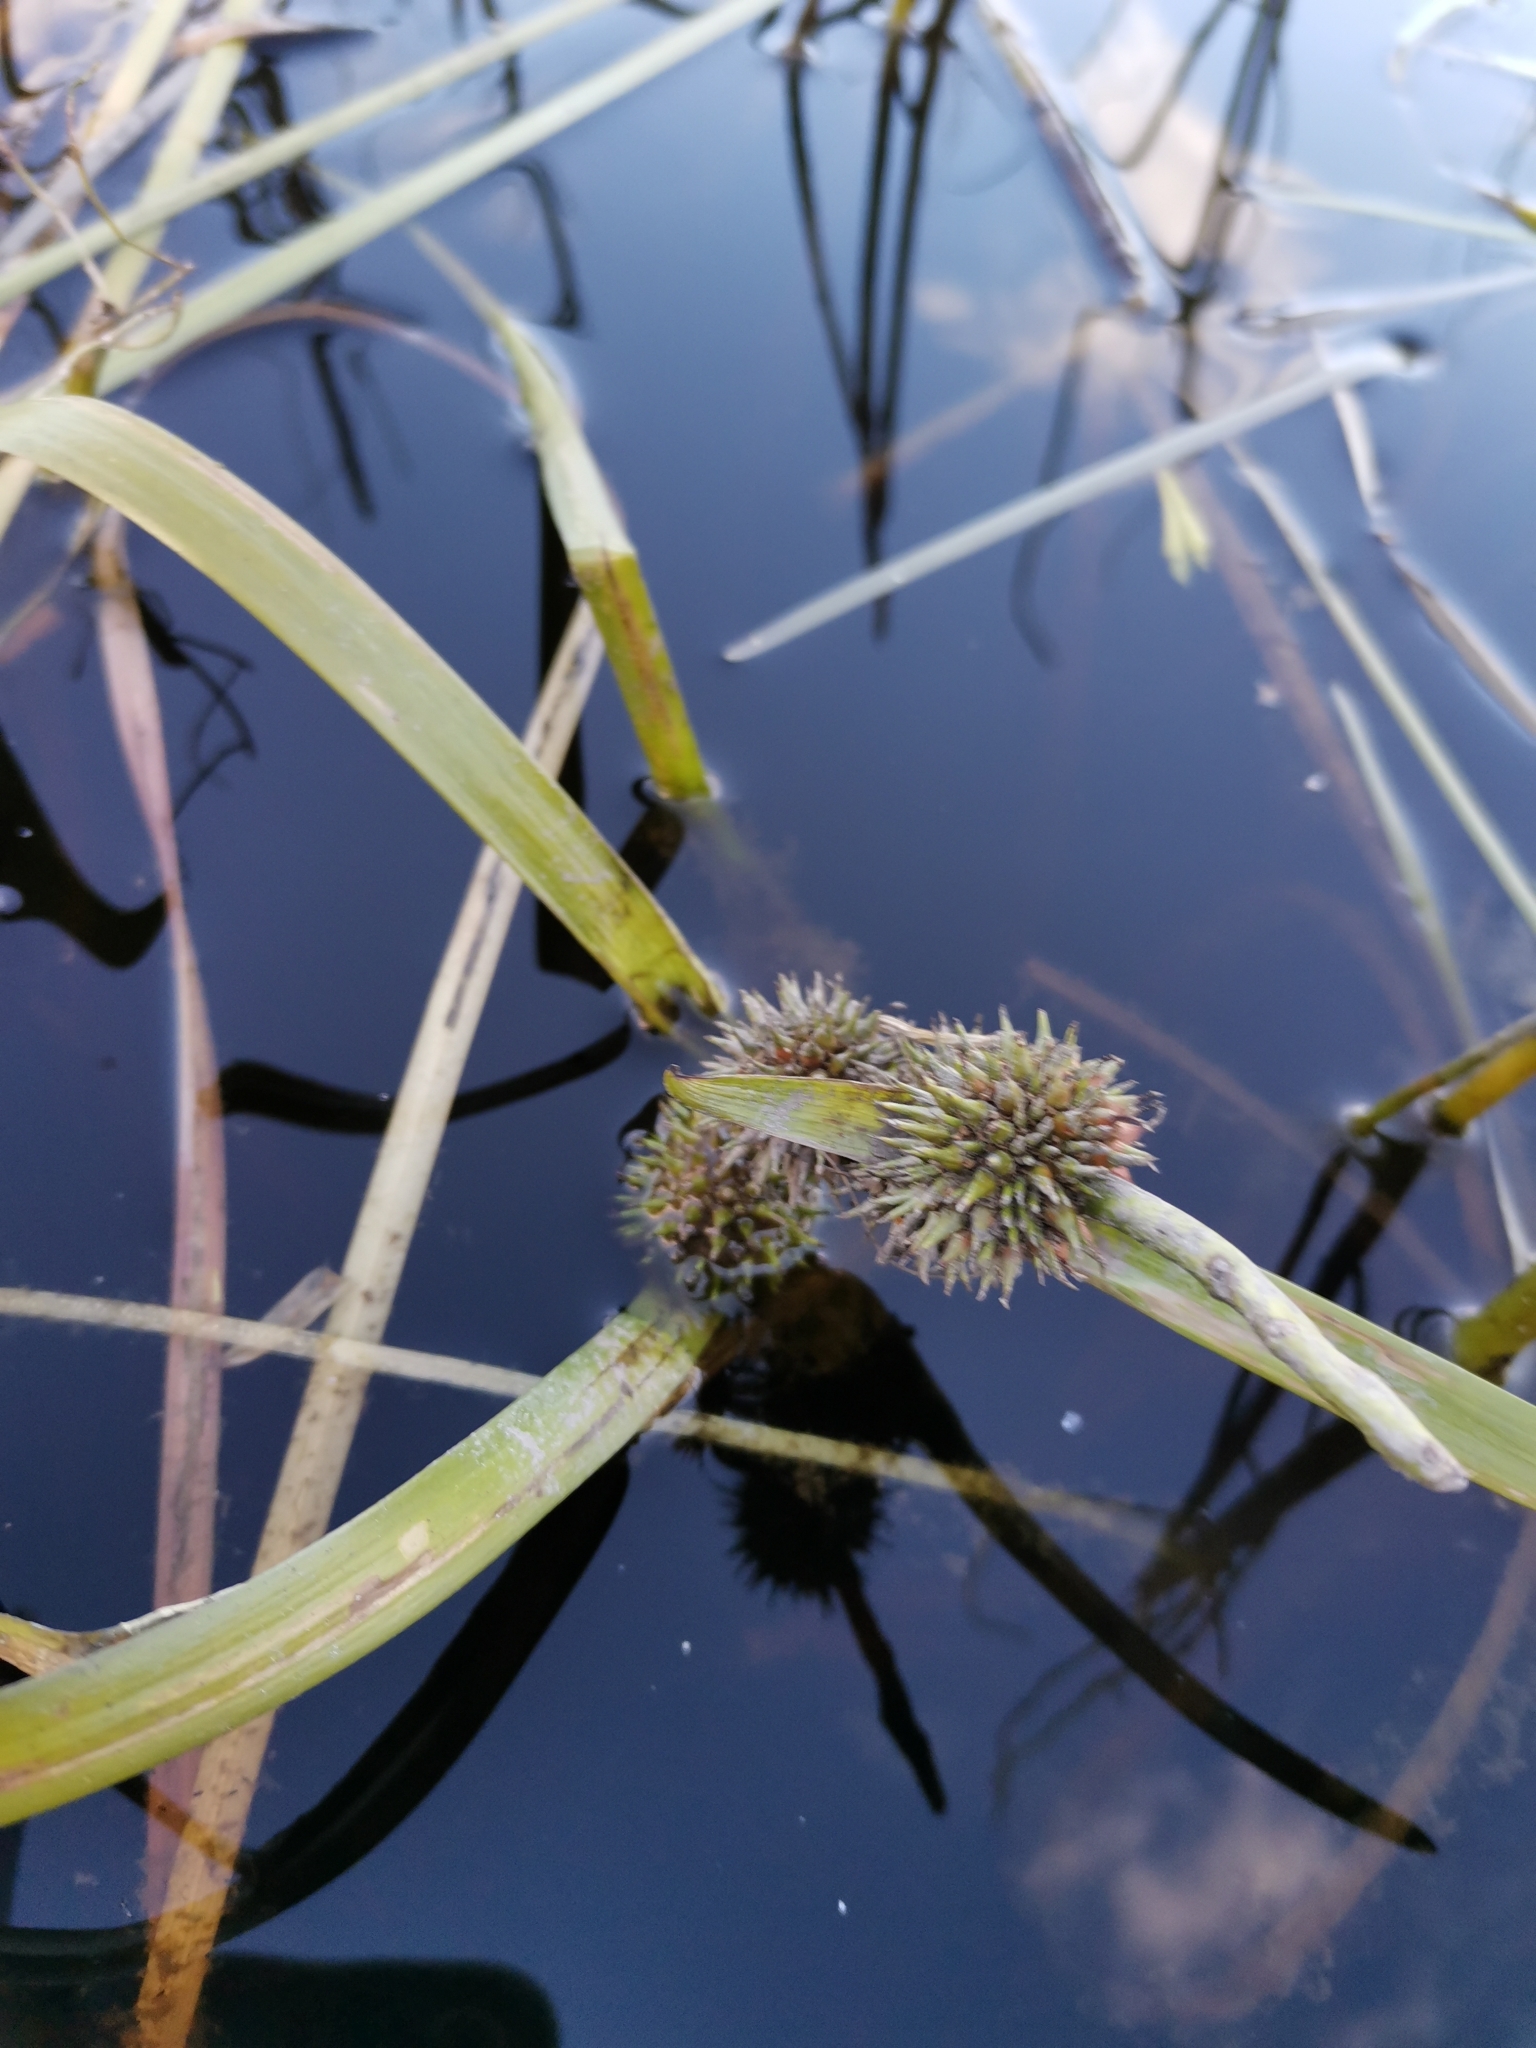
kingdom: Plantae
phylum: Tracheophyta
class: Liliopsida
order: Poales
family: Typhaceae
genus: Sparganium
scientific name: Sparganium emersum
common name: Unbranched bur-reed
